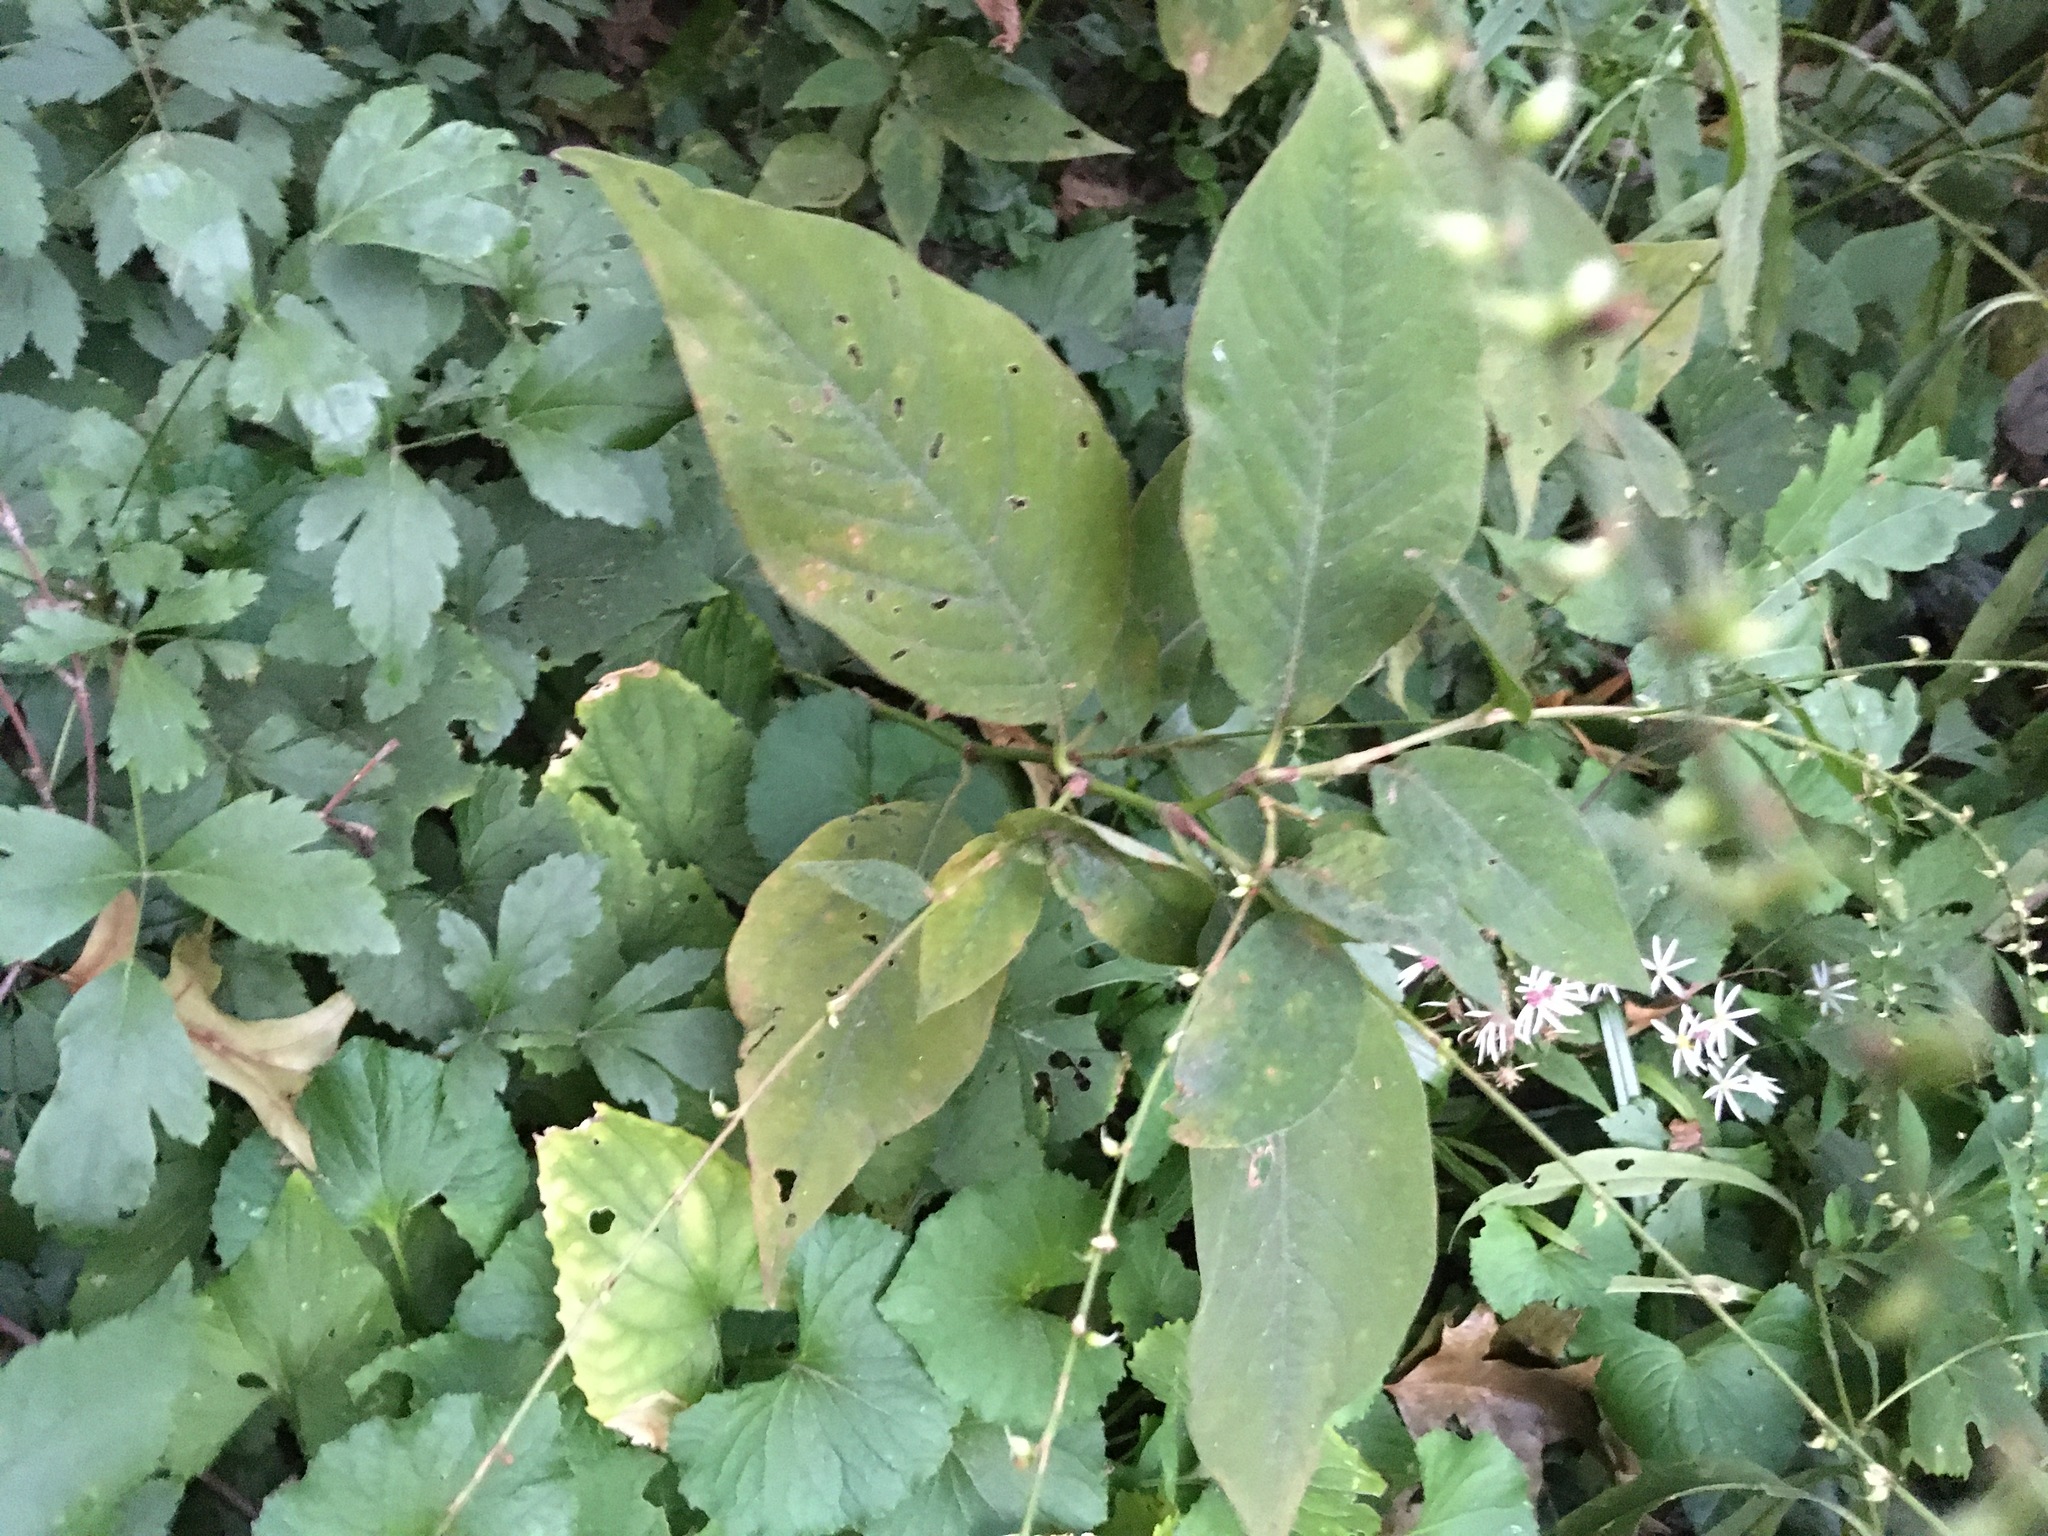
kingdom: Plantae
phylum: Tracheophyta
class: Magnoliopsida
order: Caryophyllales
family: Polygonaceae
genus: Persicaria
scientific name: Persicaria virginiana
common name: Jumpseed
